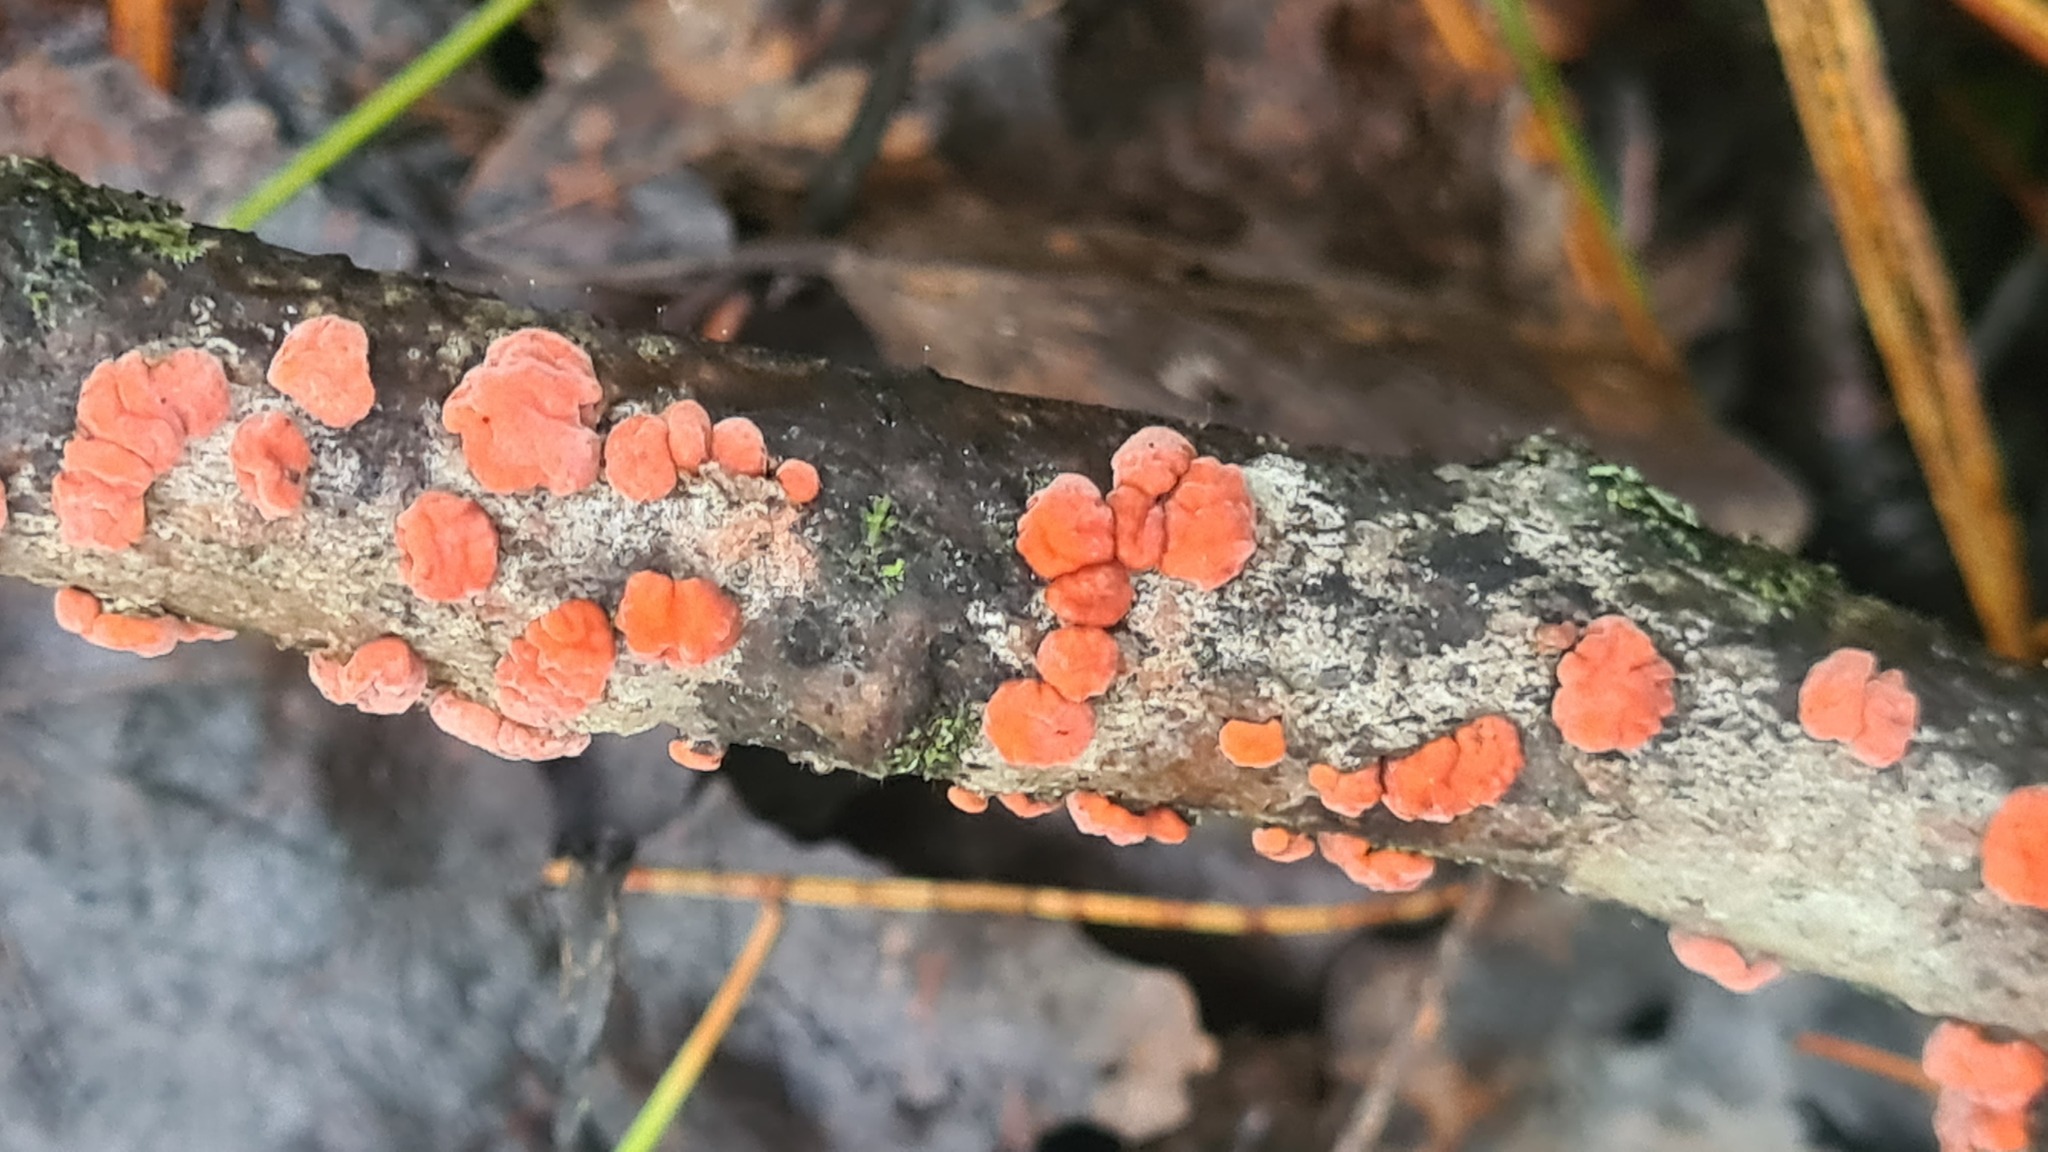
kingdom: Fungi
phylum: Basidiomycota
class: Agaricomycetes
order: Russulales
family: Peniophoraceae
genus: Peniophora
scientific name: Peniophora rufa
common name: Red tree brain fungus
